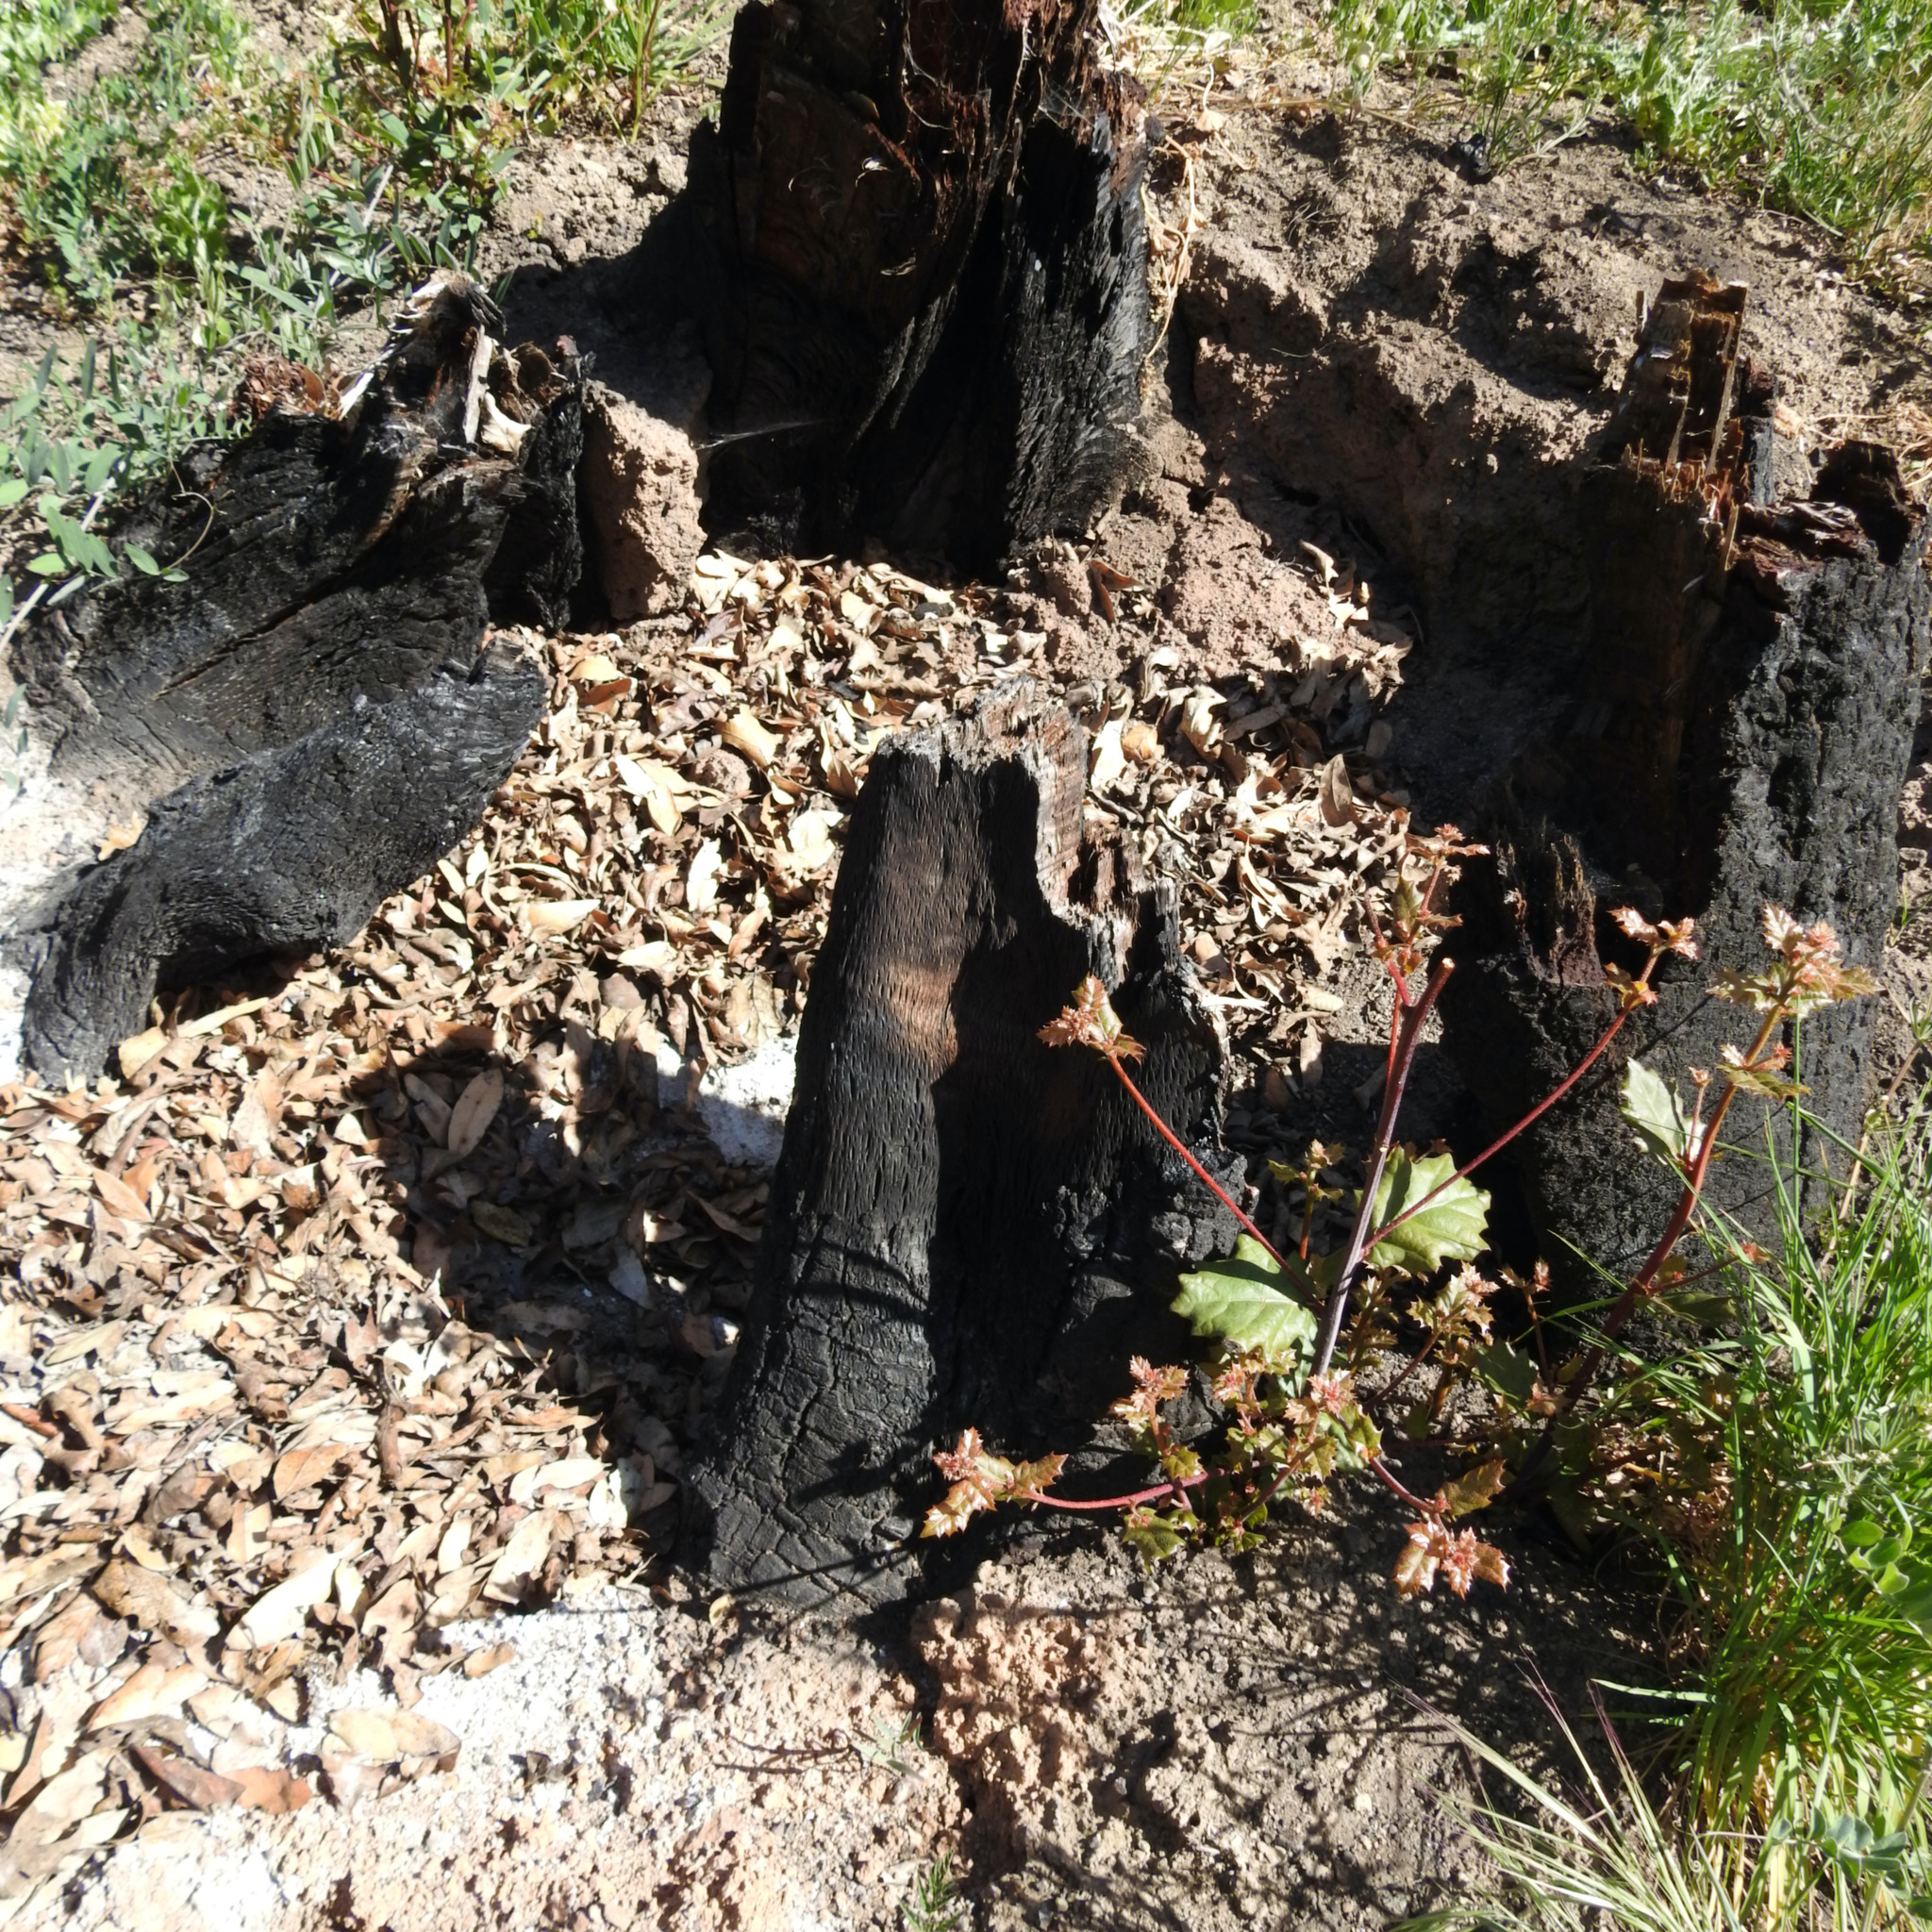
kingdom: Plantae
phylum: Tracheophyta
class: Magnoliopsida
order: Fagales
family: Fagaceae
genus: Quercus
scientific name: Quercus agrifolia
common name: California live oak
